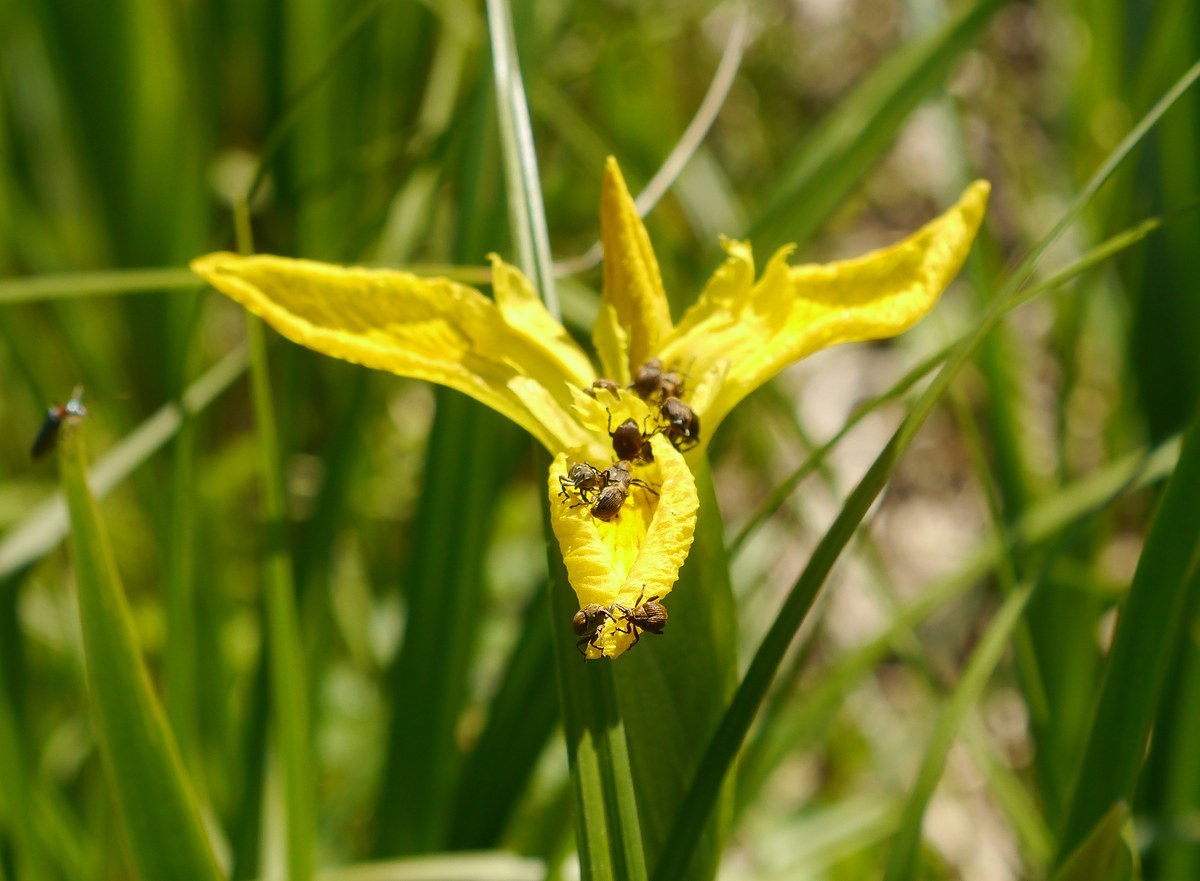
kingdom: Plantae
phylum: Tracheophyta
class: Liliopsida
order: Asparagales
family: Iridaceae
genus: Iris
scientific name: Iris pseudacorus
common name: Yellow flag
